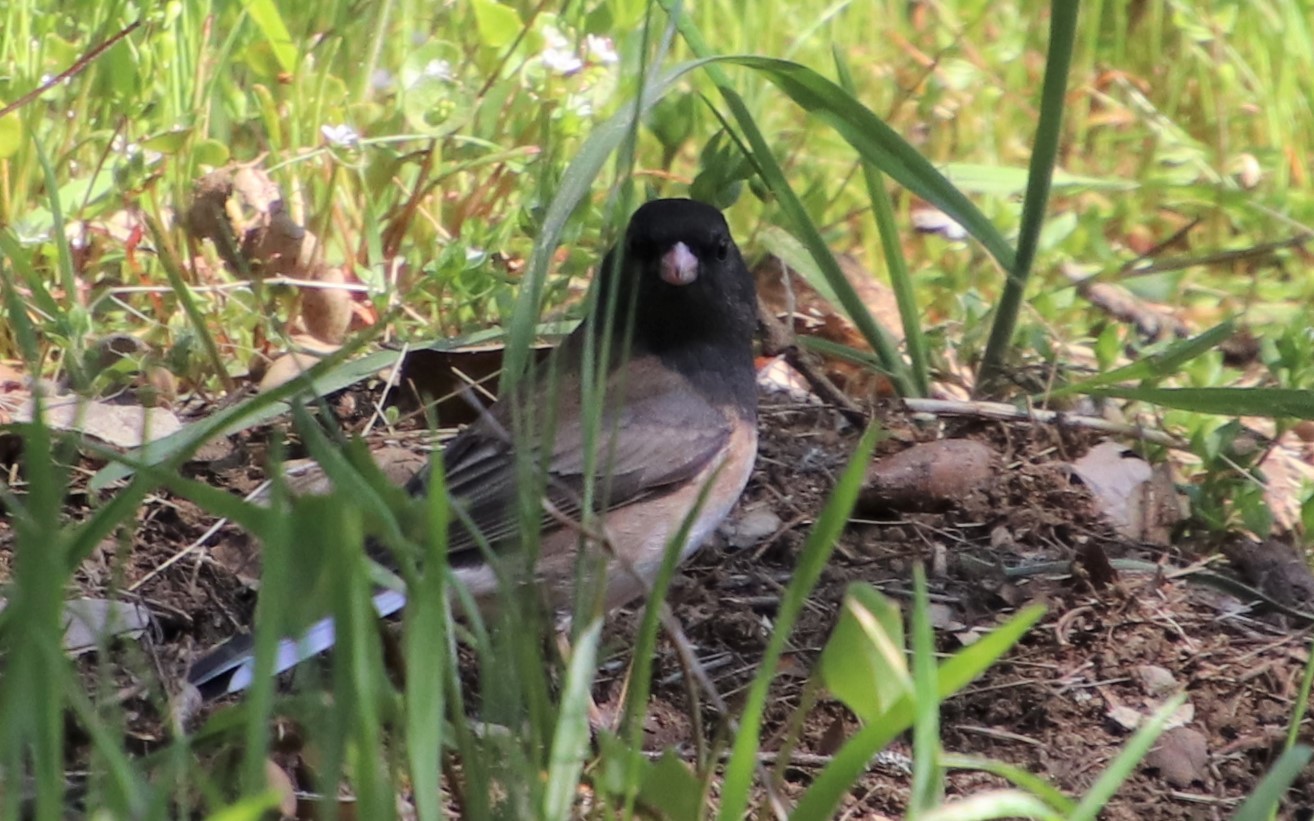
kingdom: Animalia
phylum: Chordata
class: Aves
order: Passeriformes
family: Passerellidae
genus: Junco
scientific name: Junco hyemalis
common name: Dark-eyed junco
